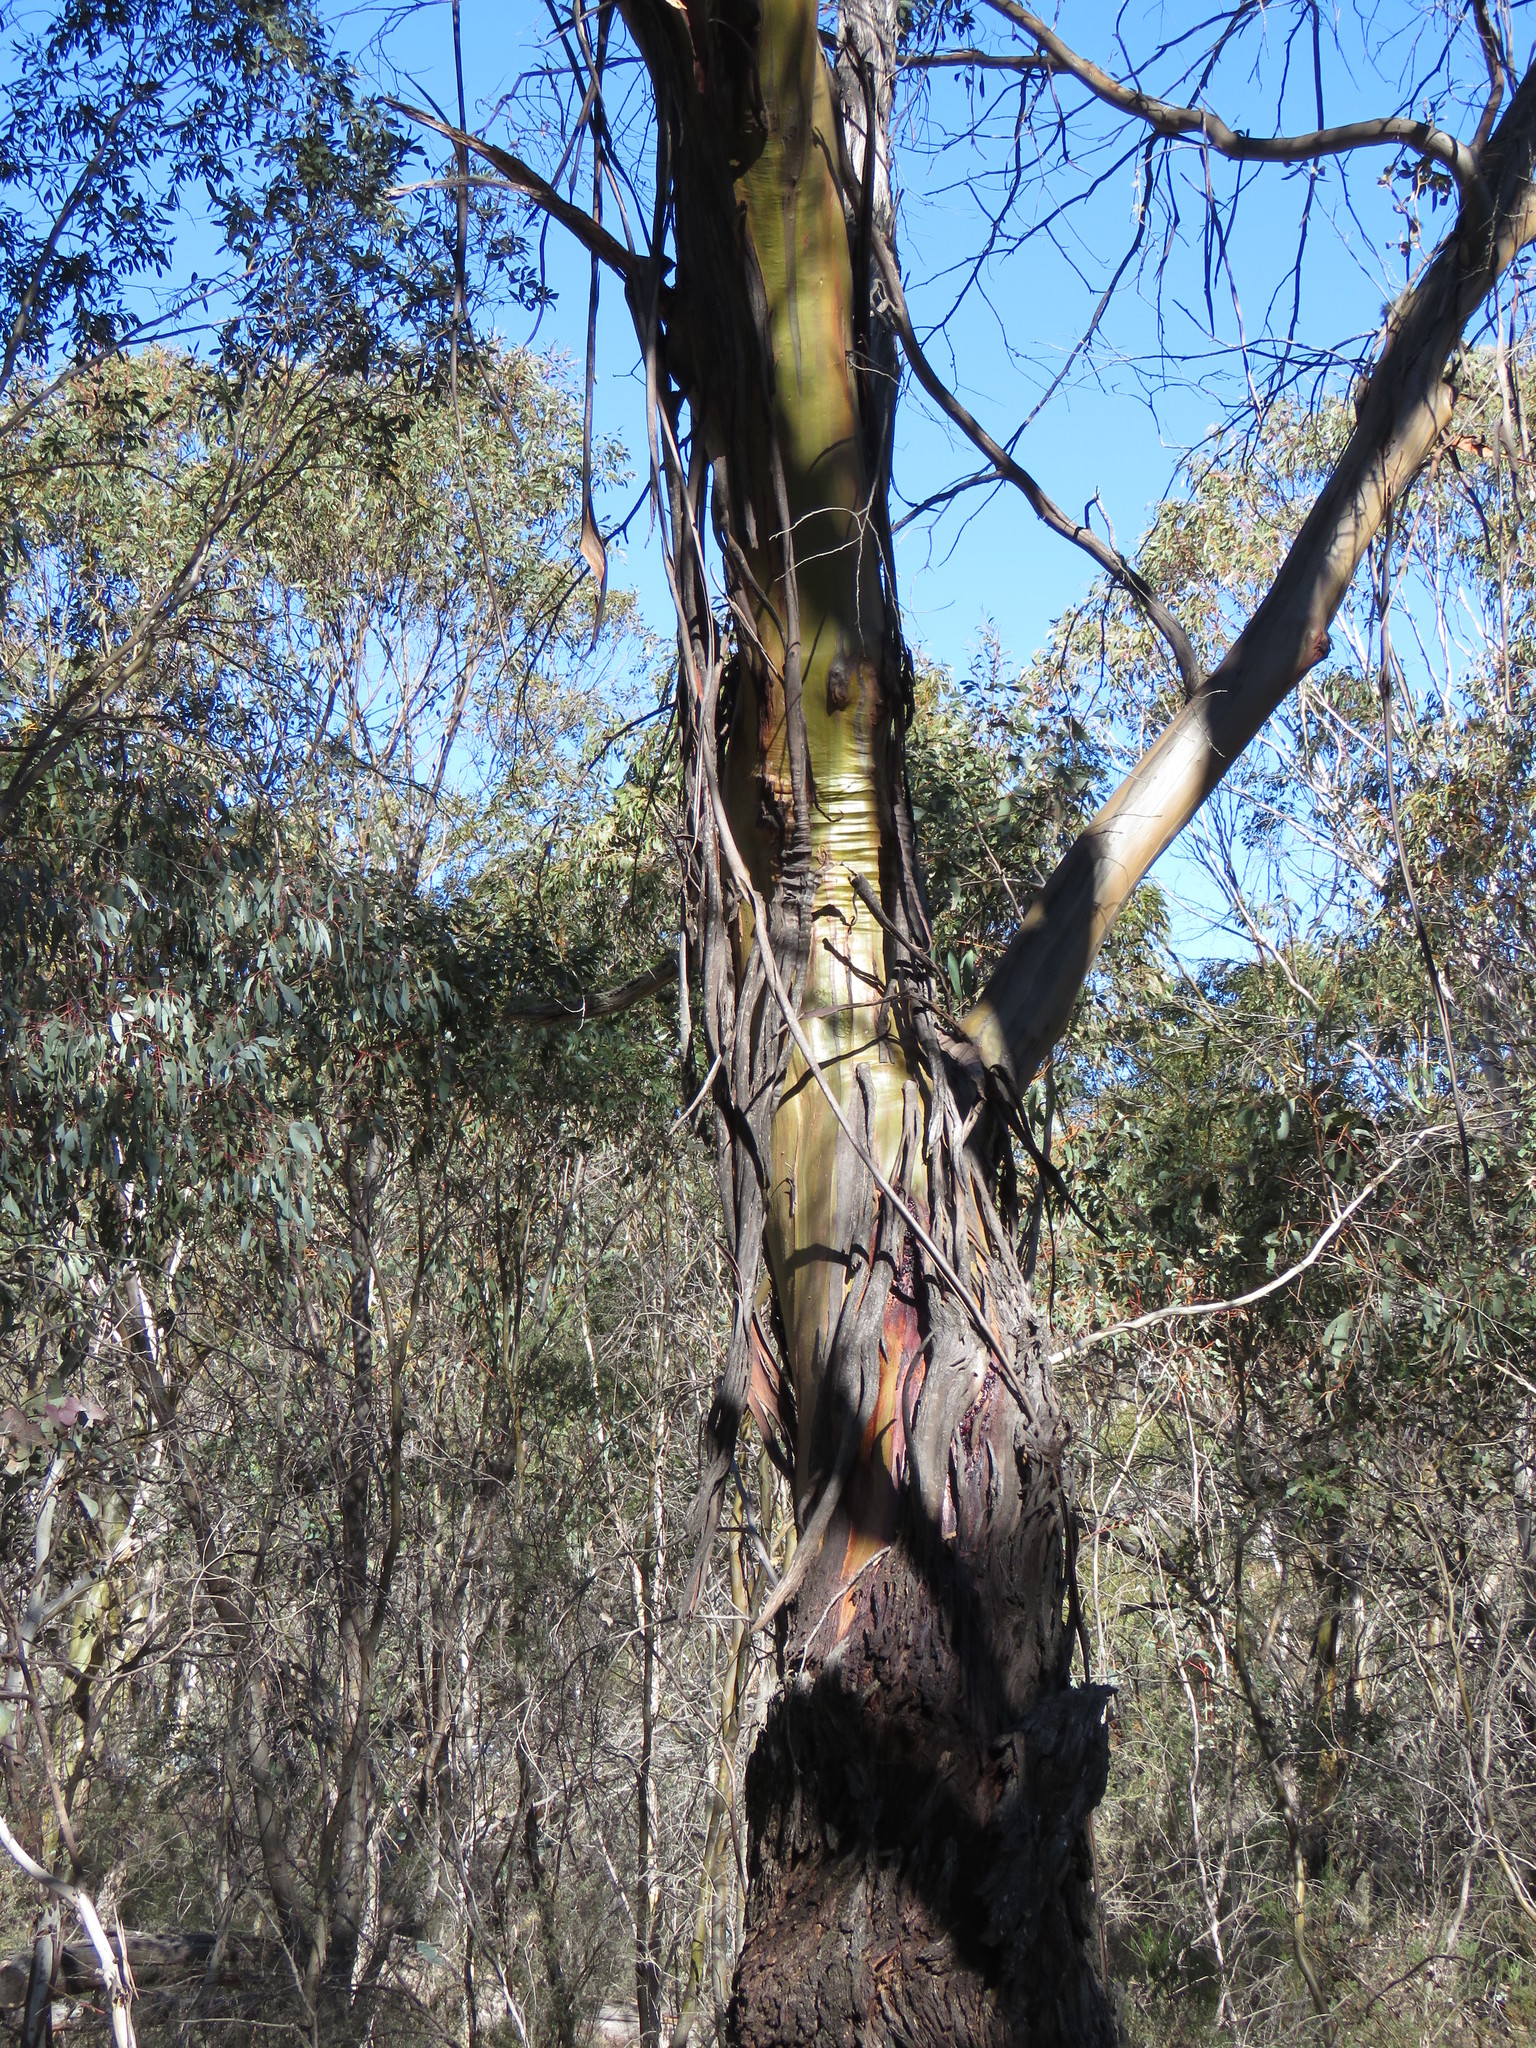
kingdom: Plantae
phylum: Tracheophyta
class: Magnoliopsida
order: Myrtales
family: Myrtaceae
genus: Eucalyptus
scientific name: Eucalyptus stellulata
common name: Black sallee
